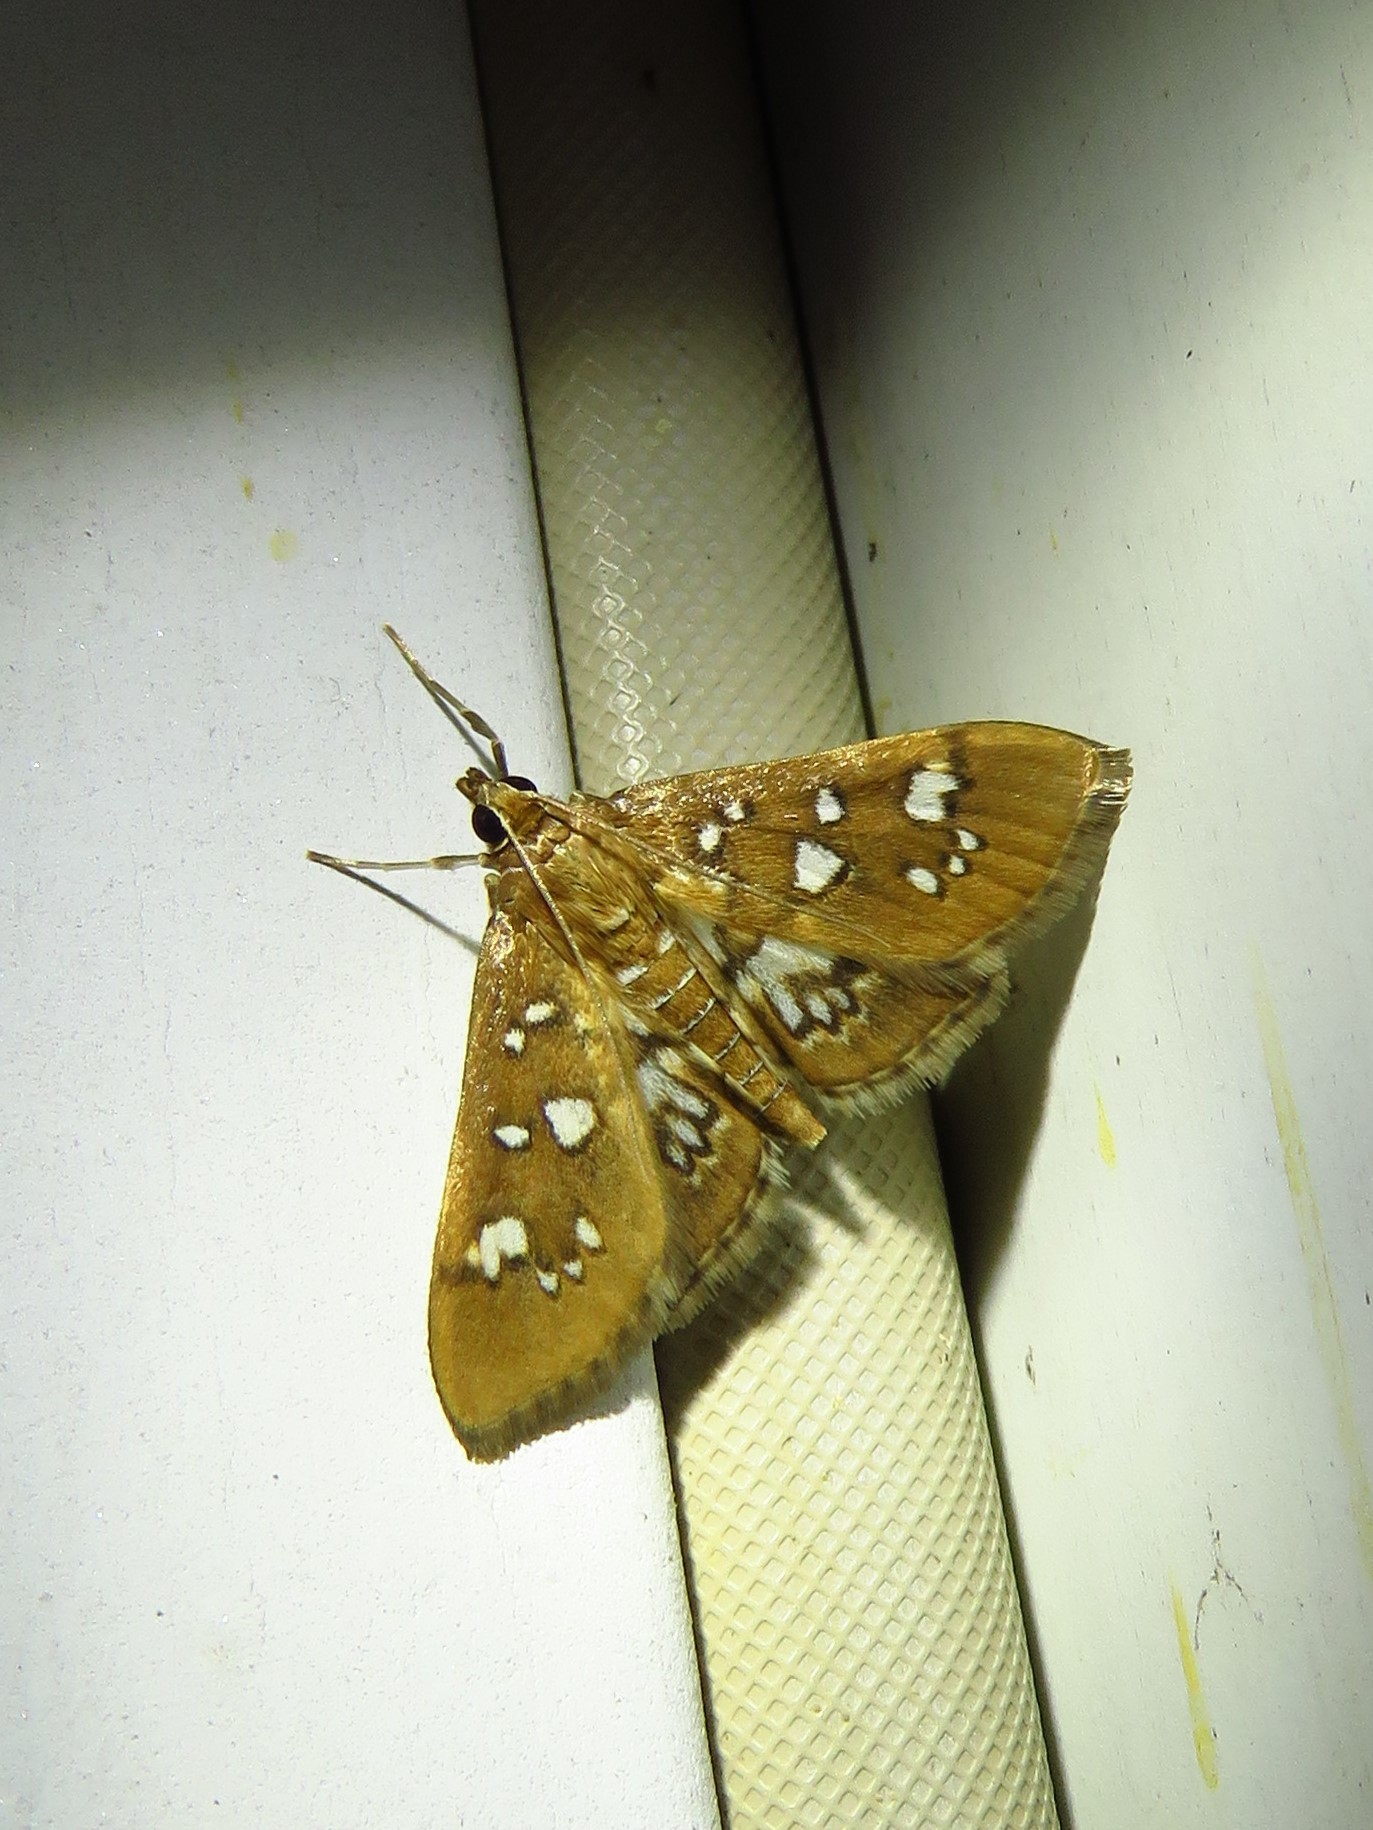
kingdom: Animalia
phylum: Arthropoda
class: Insecta
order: Lepidoptera
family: Crambidae
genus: Samea
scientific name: Samea baccatalis
